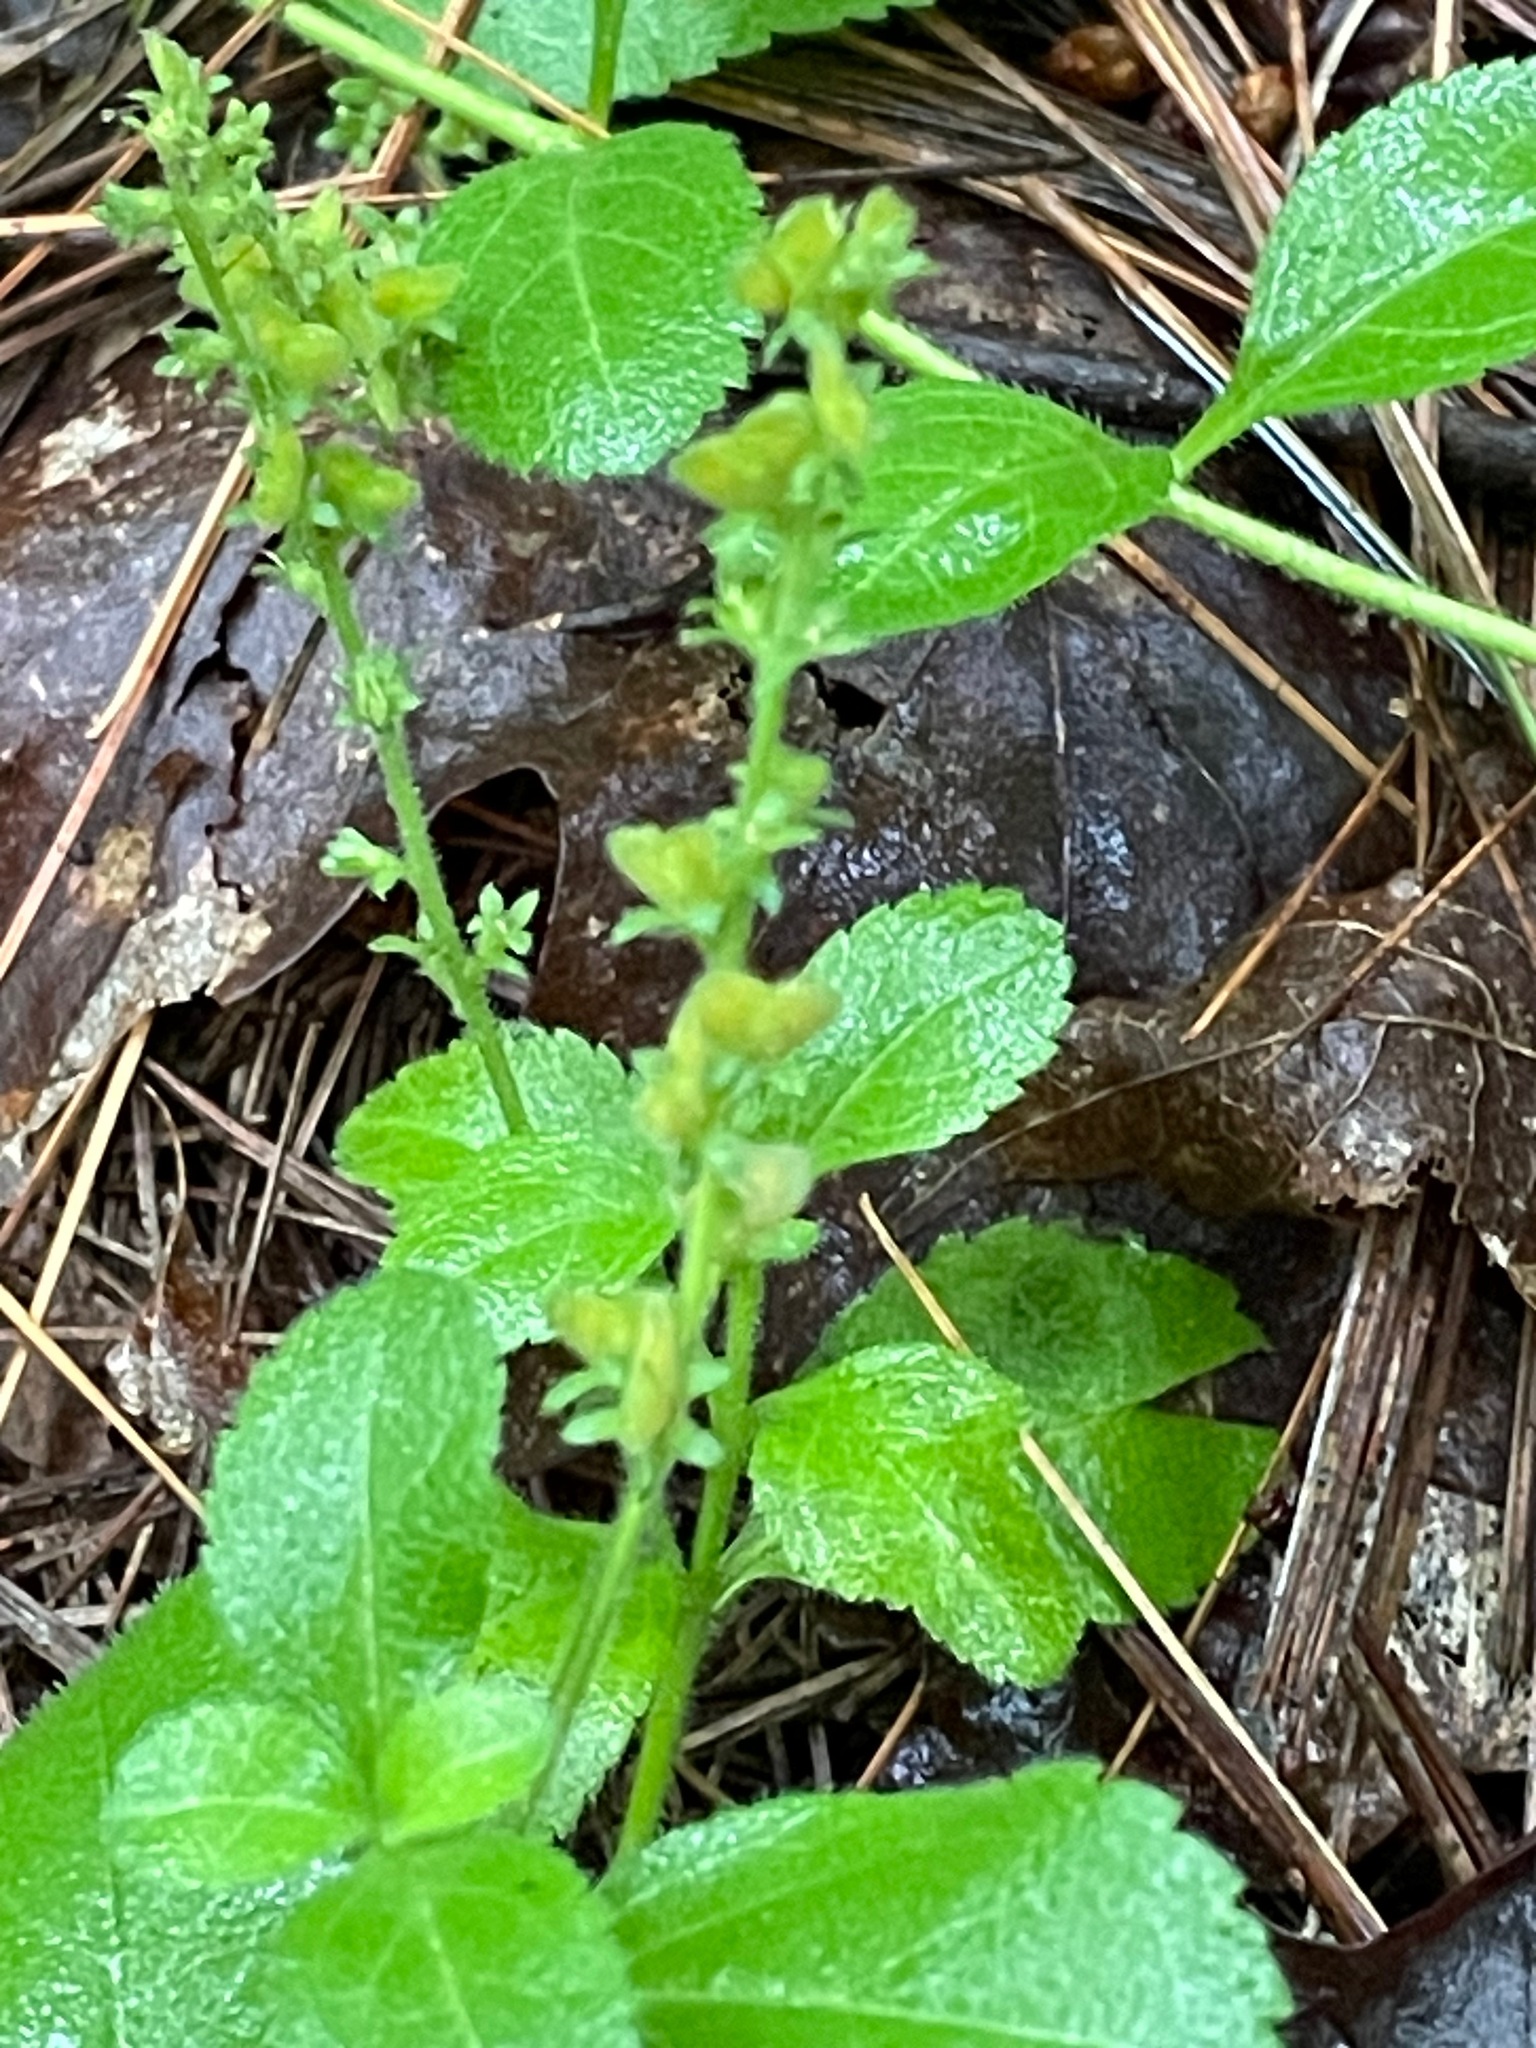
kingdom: Plantae
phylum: Tracheophyta
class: Magnoliopsida
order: Lamiales
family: Plantaginaceae
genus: Veronica
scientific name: Veronica officinalis
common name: Common speedwell
